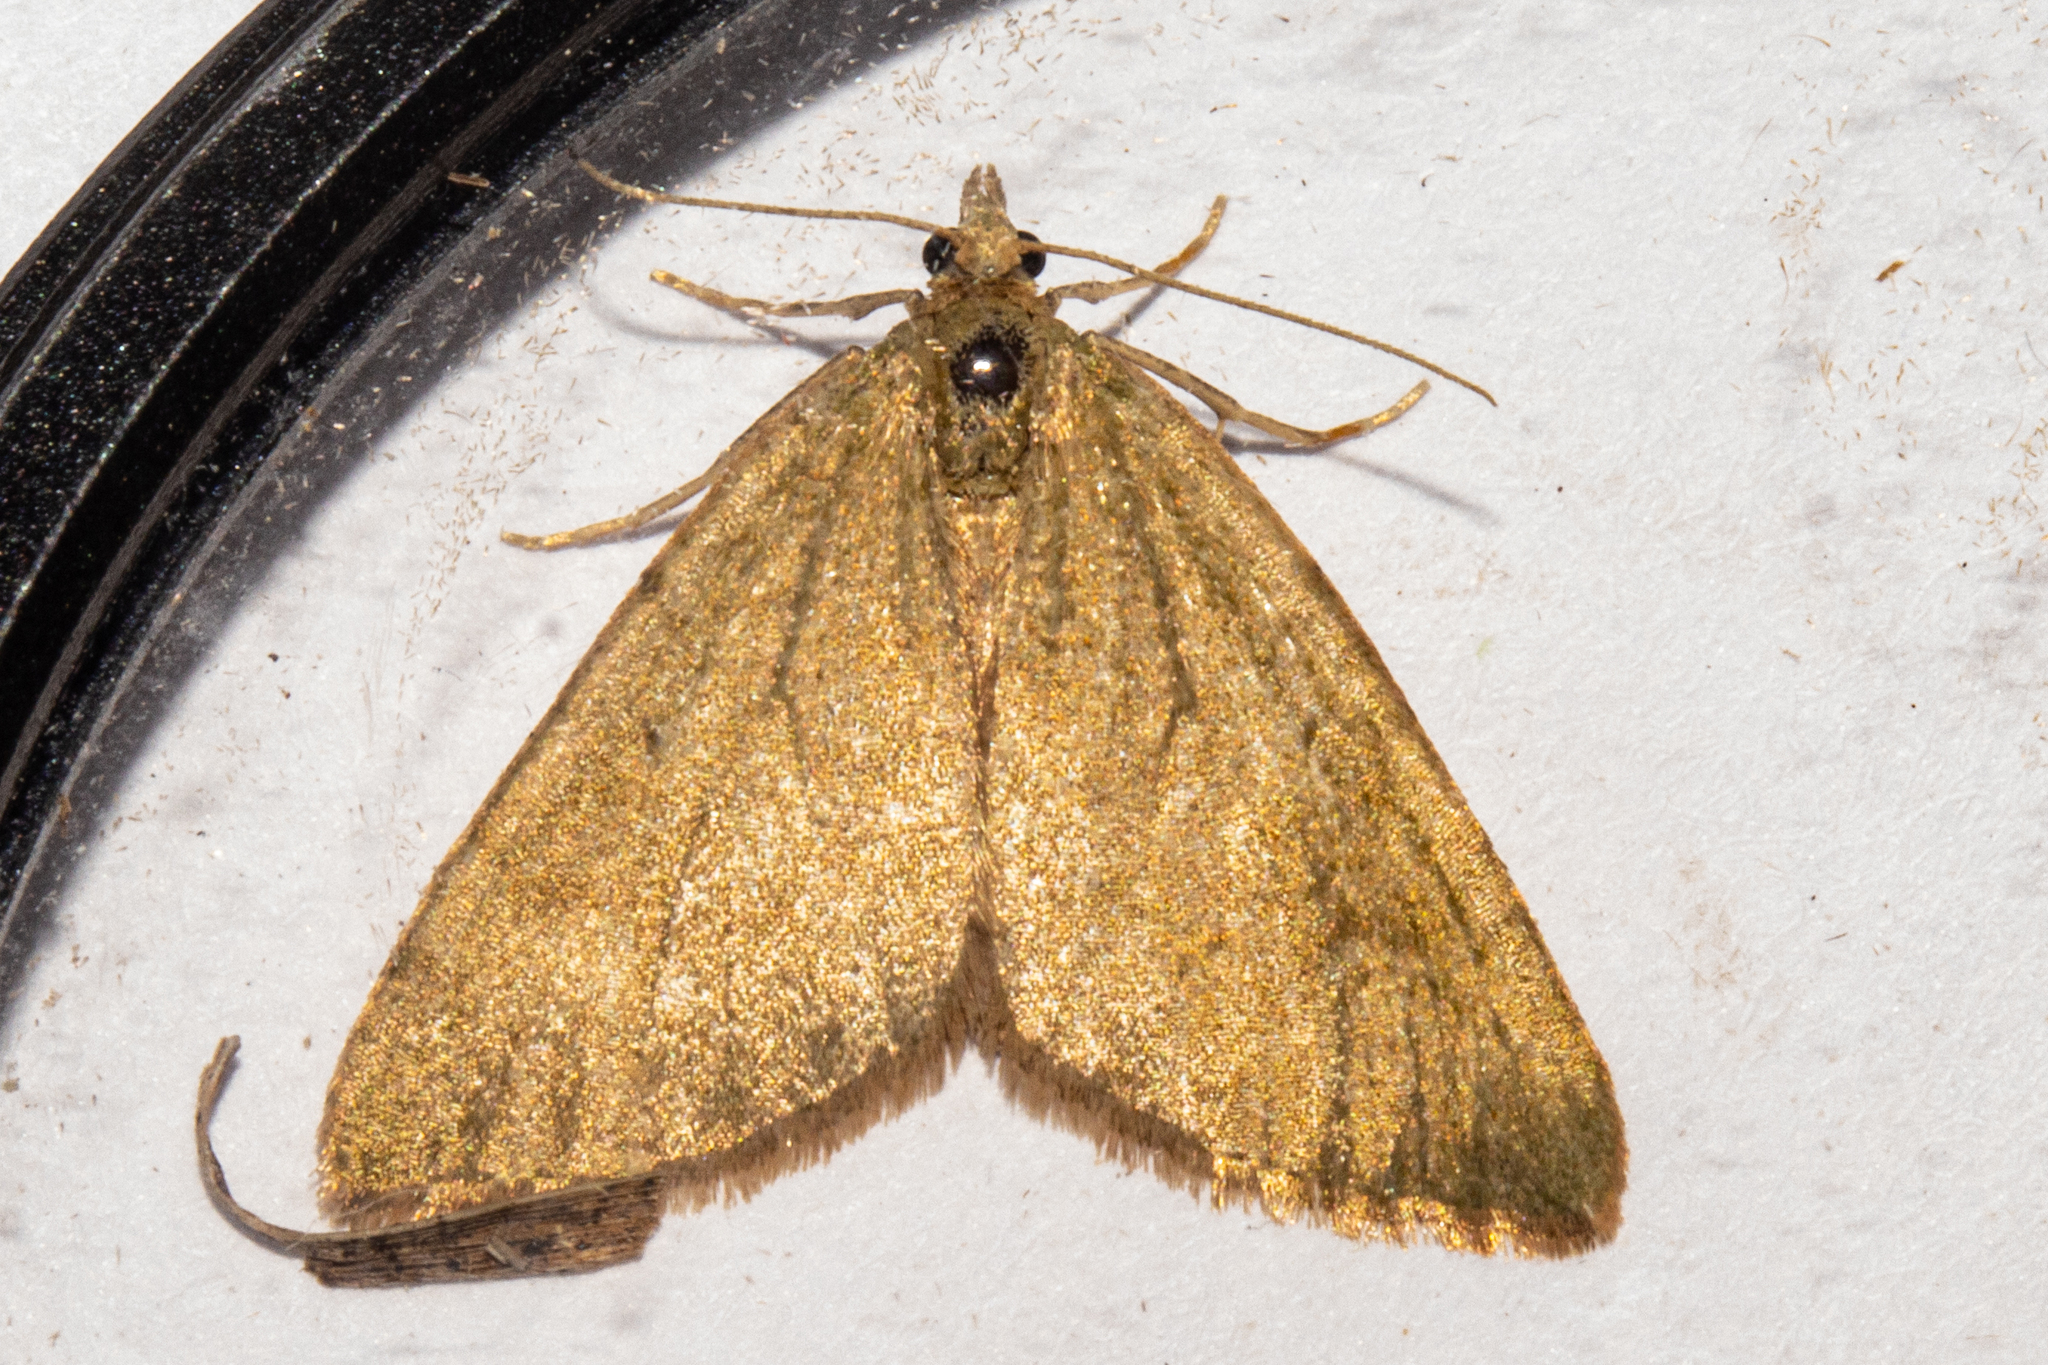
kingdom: Animalia
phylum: Arthropoda
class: Insecta
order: Lepidoptera
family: Geometridae
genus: Epyaxa
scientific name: Epyaxa rosearia
